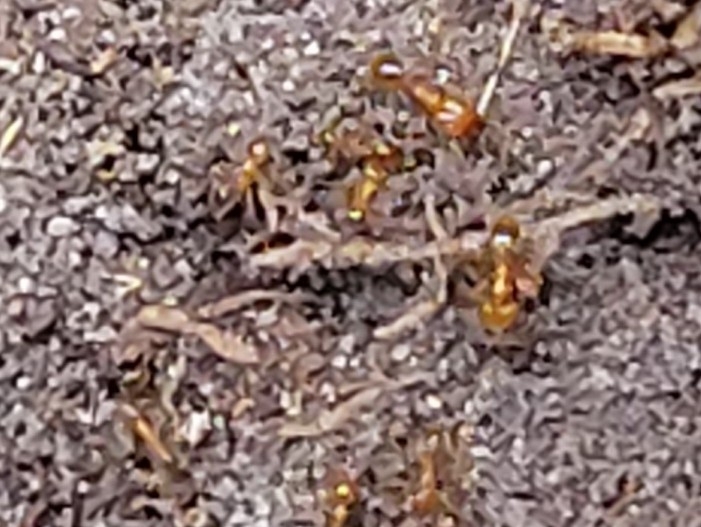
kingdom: Animalia
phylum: Arthropoda
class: Insecta
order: Hymenoptera
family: Formicidae
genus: Pheidole
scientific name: Pheidole dentata
